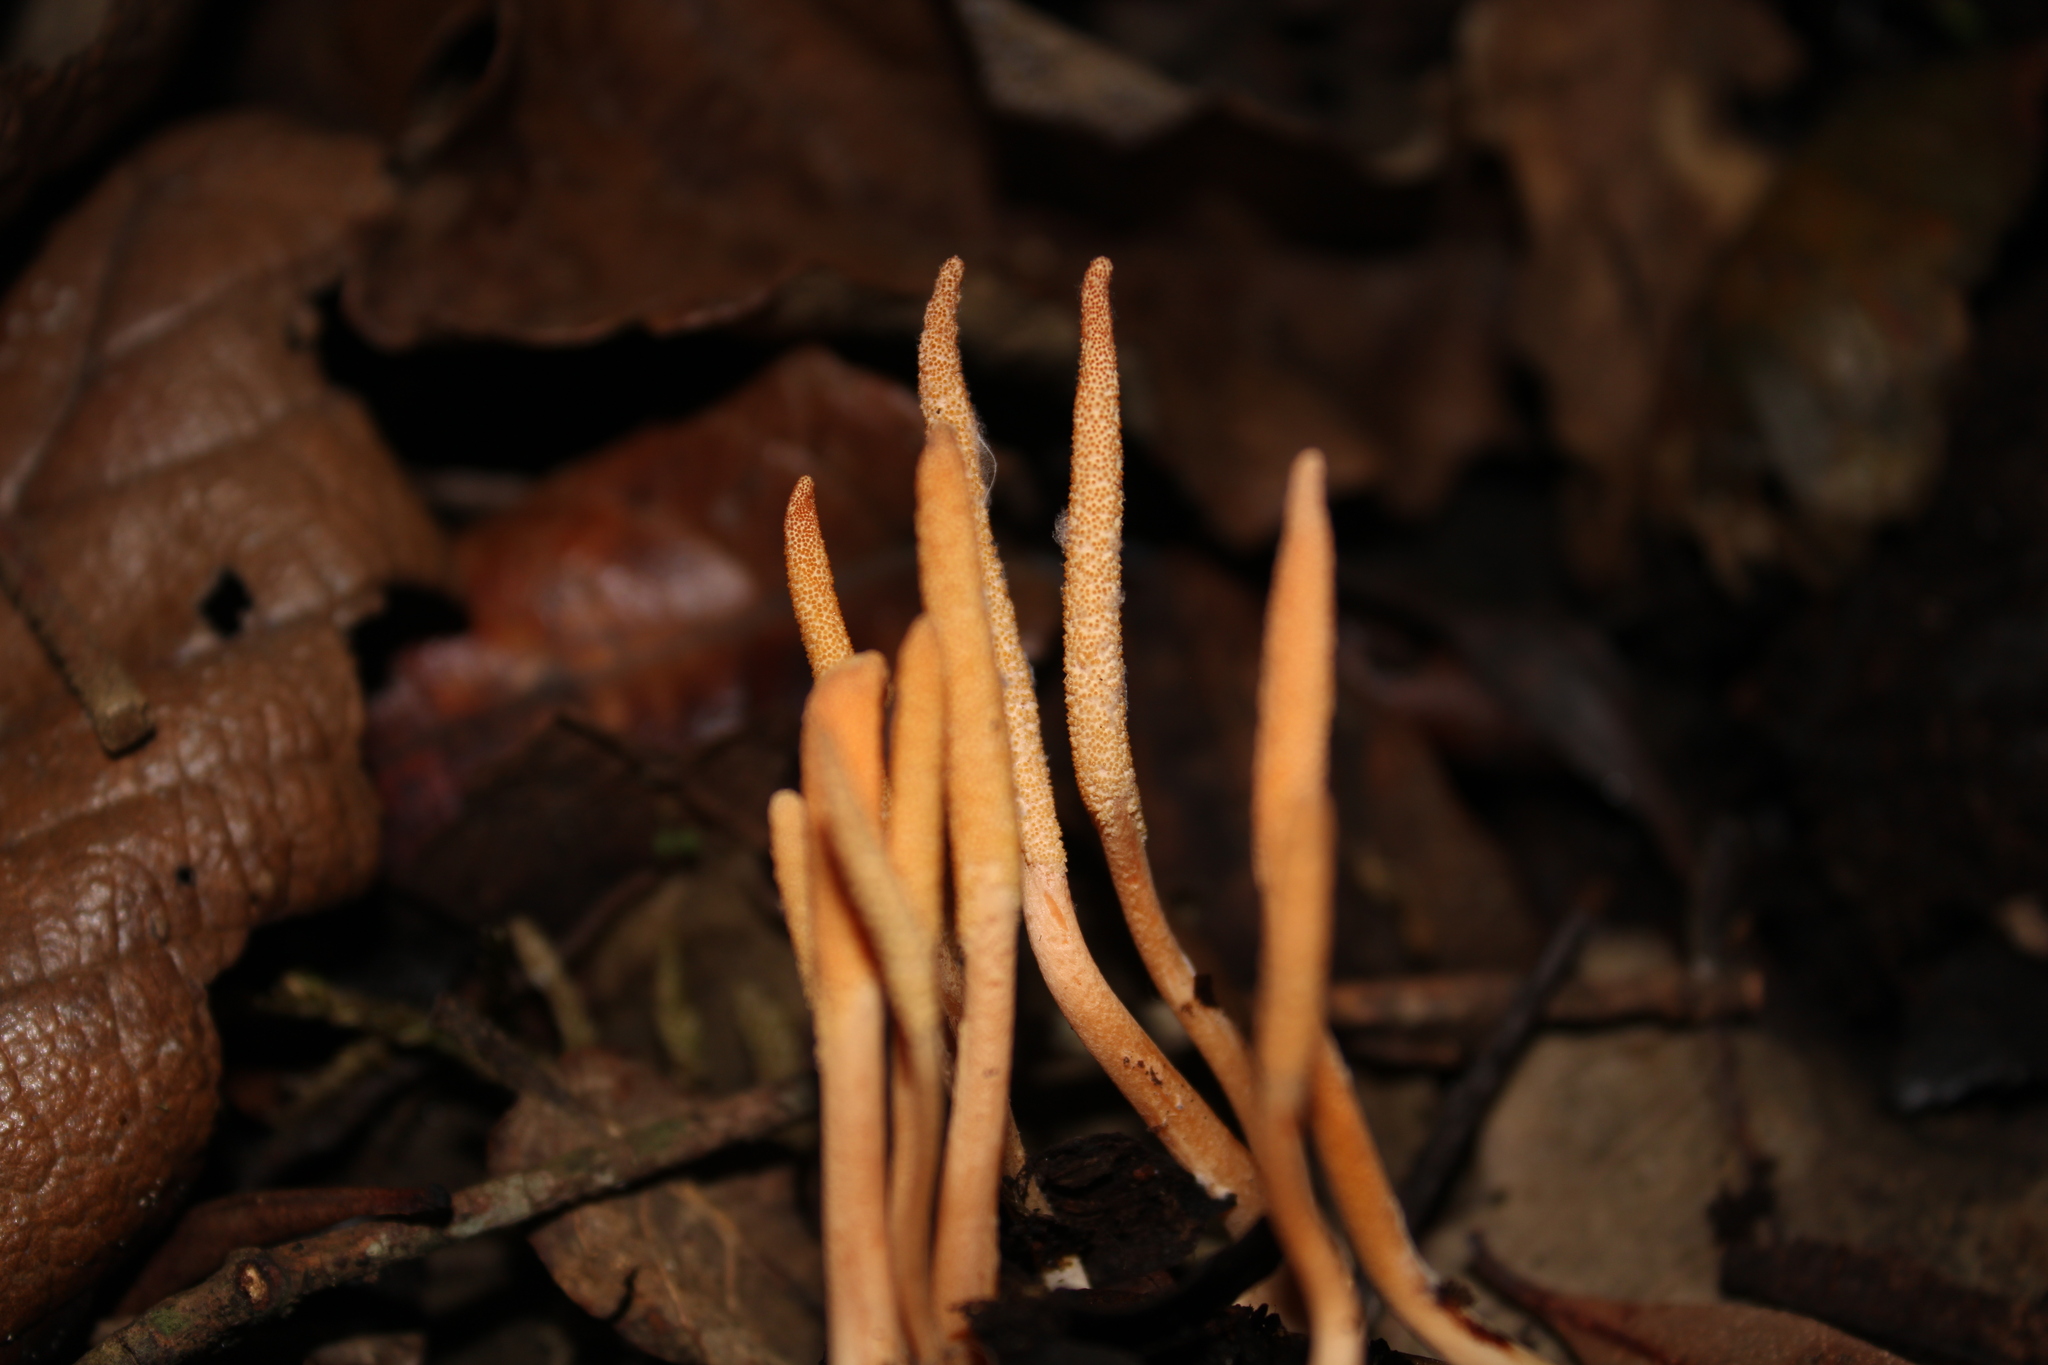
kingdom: Fungi
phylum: Ascomycota
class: Sordariomycetes
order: Hypocreales
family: Cordycipitaceae
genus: Cordyceps
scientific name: Cordyceps mexicana
